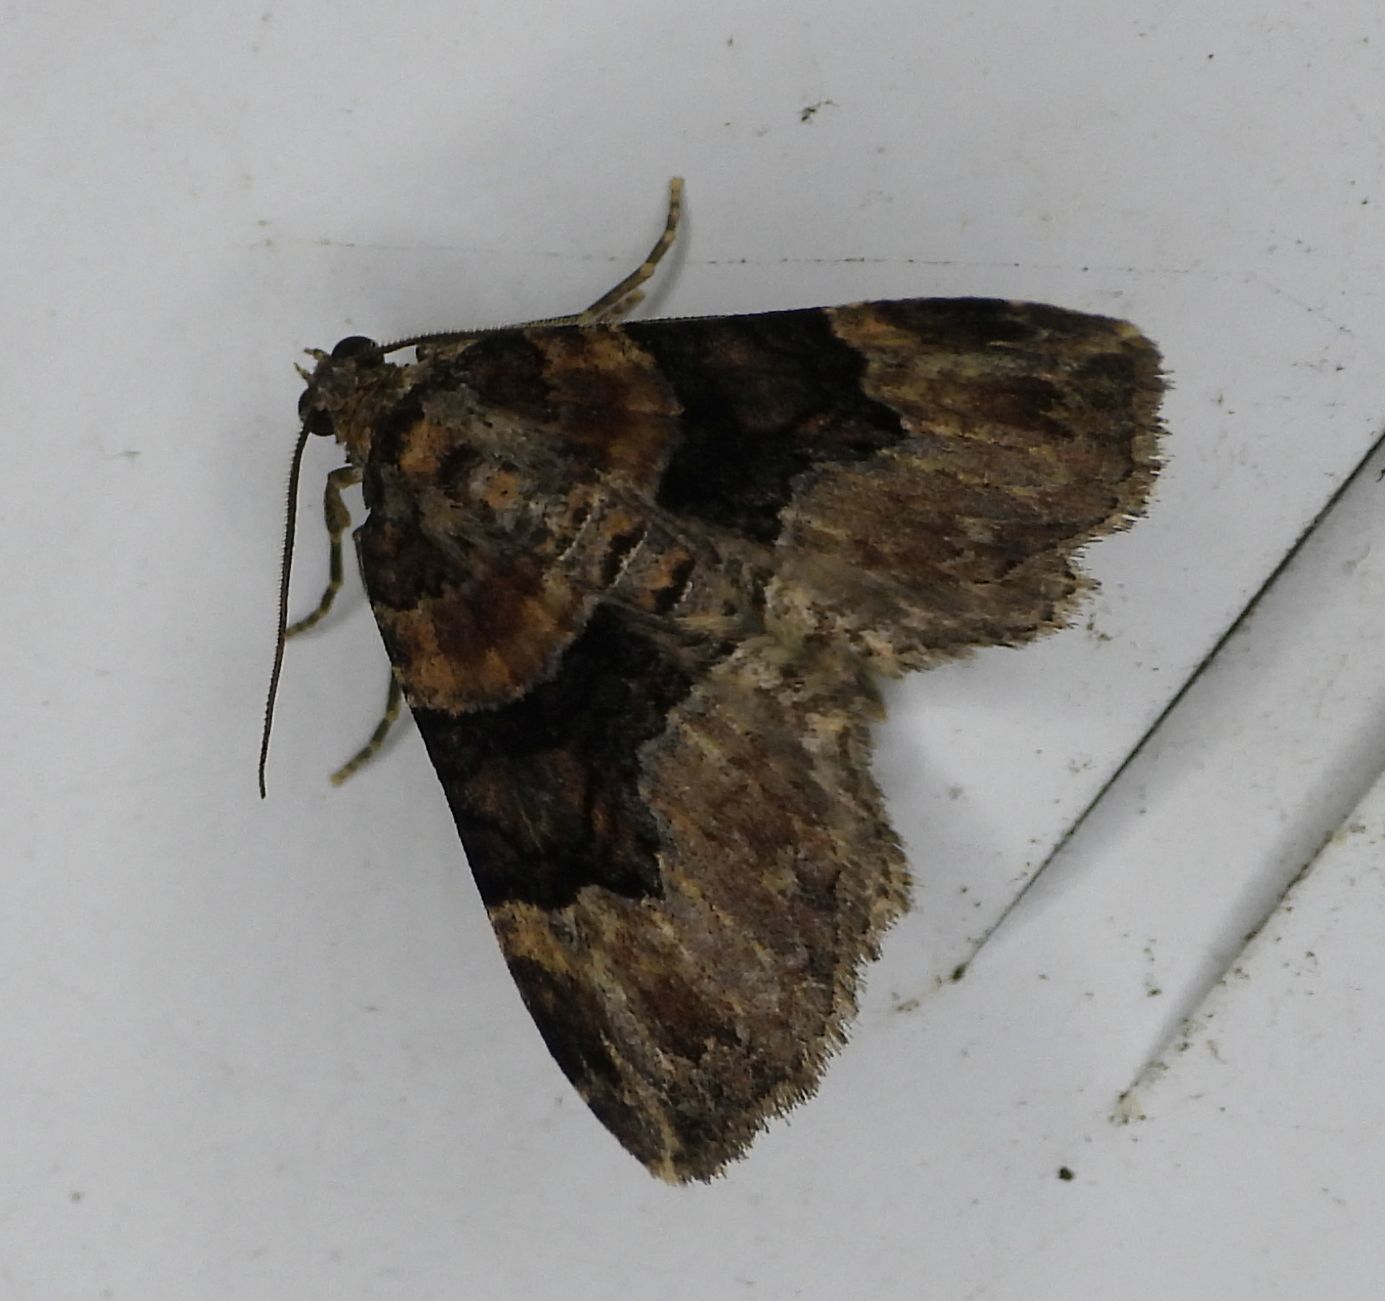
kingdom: Animalia
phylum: Arthropoda
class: Insecta
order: Lepidoptera
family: Geometridae
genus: Xanthorhoe
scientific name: Xanthorhoe lacustrata
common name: Toothed brown carpet
